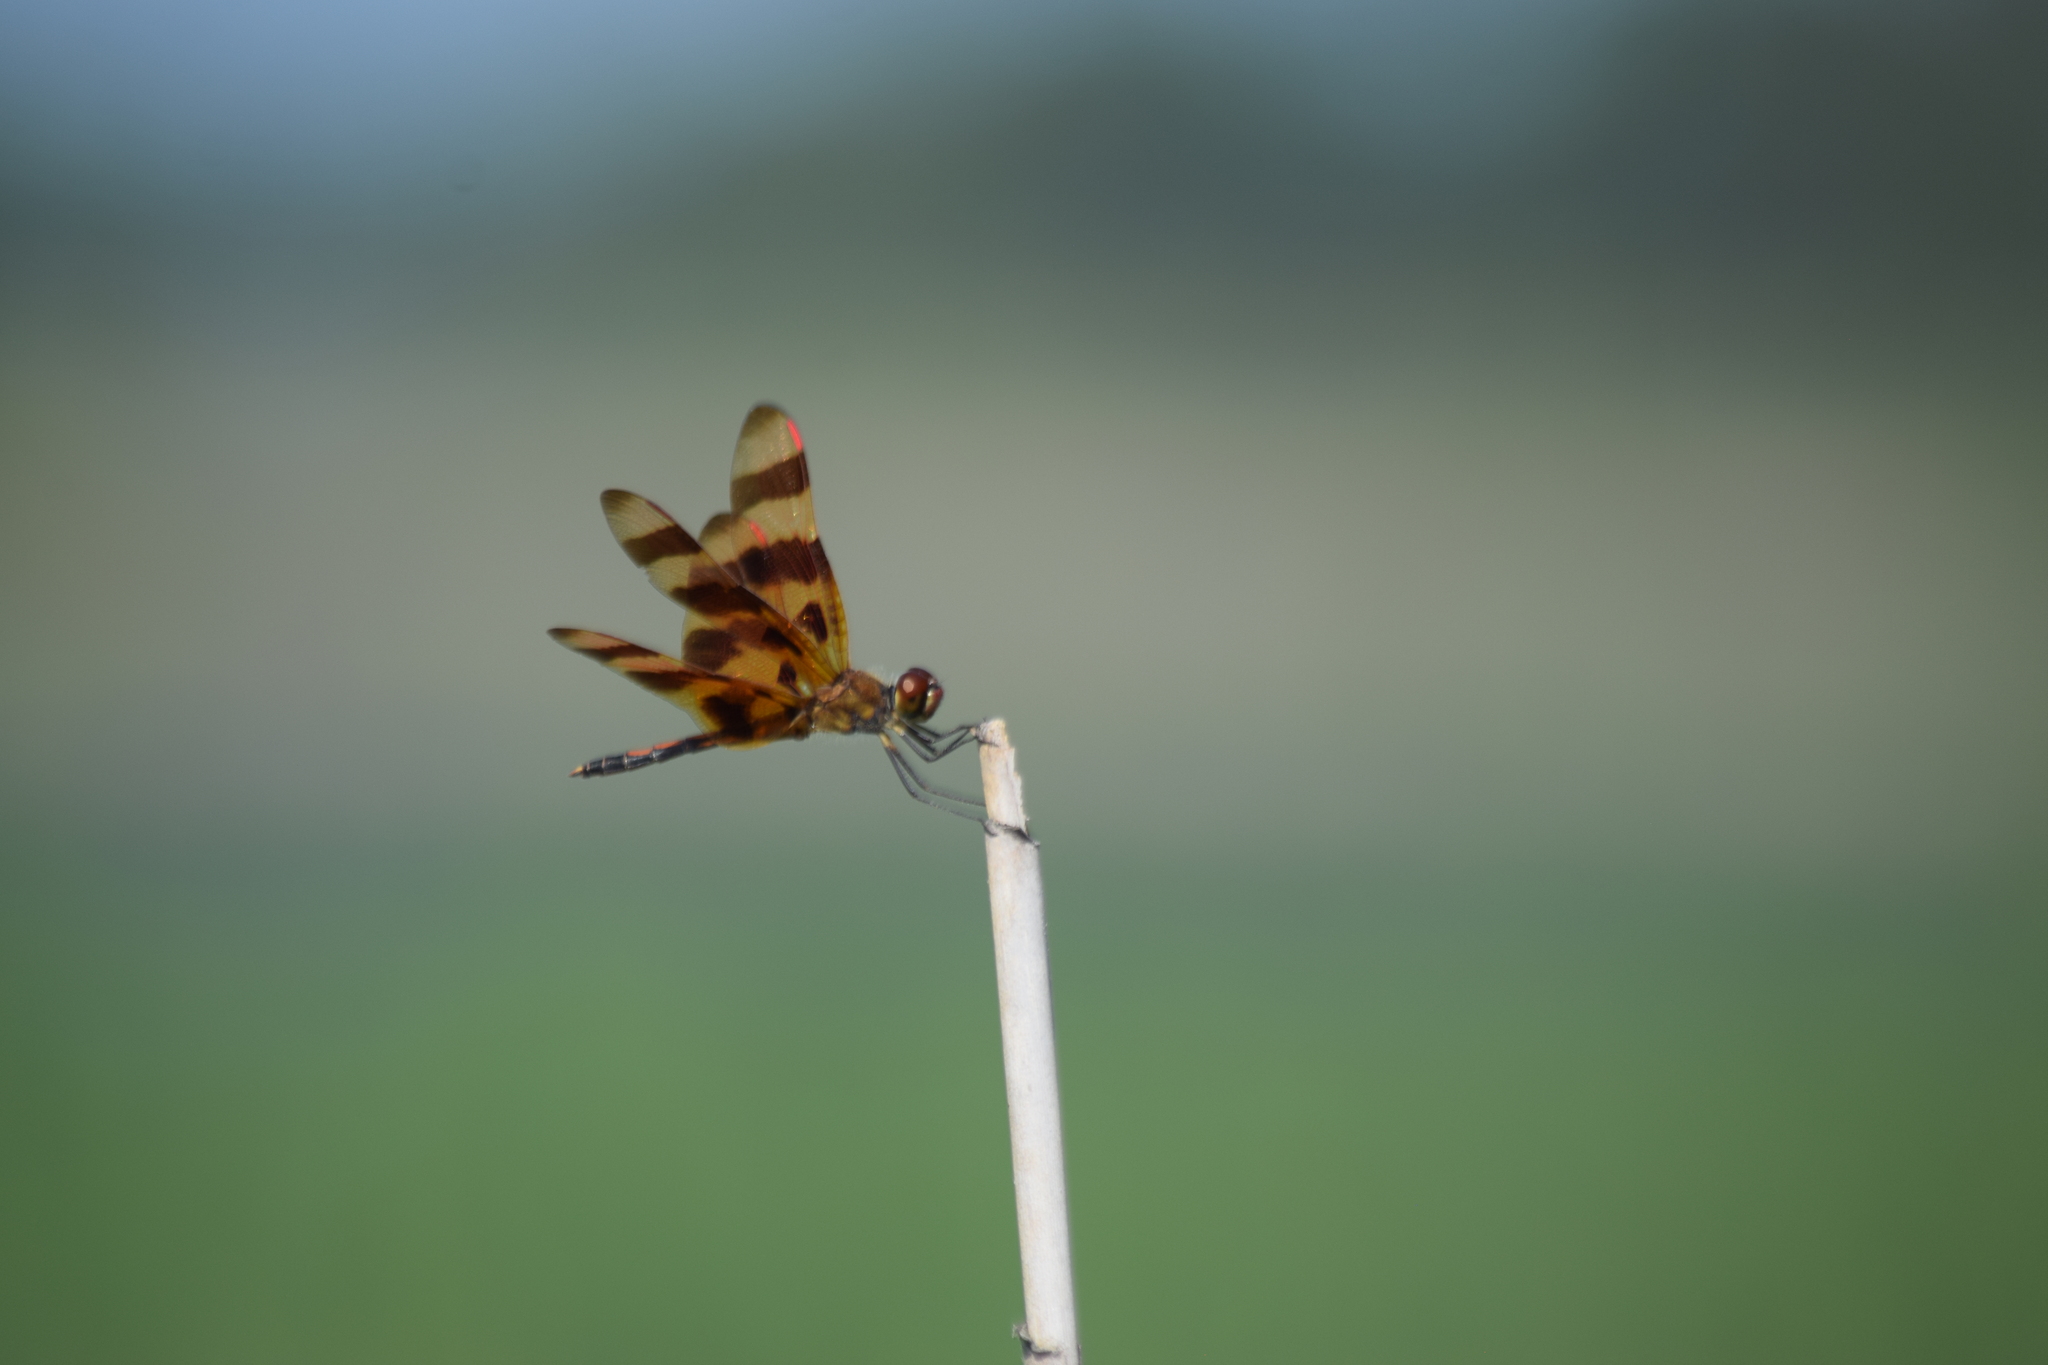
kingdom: Animalia
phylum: Arthropoda
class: Insecta
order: Odonata
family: Libellulidae
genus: Celithemis
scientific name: Celithemis eponina
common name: Halloween pennant
